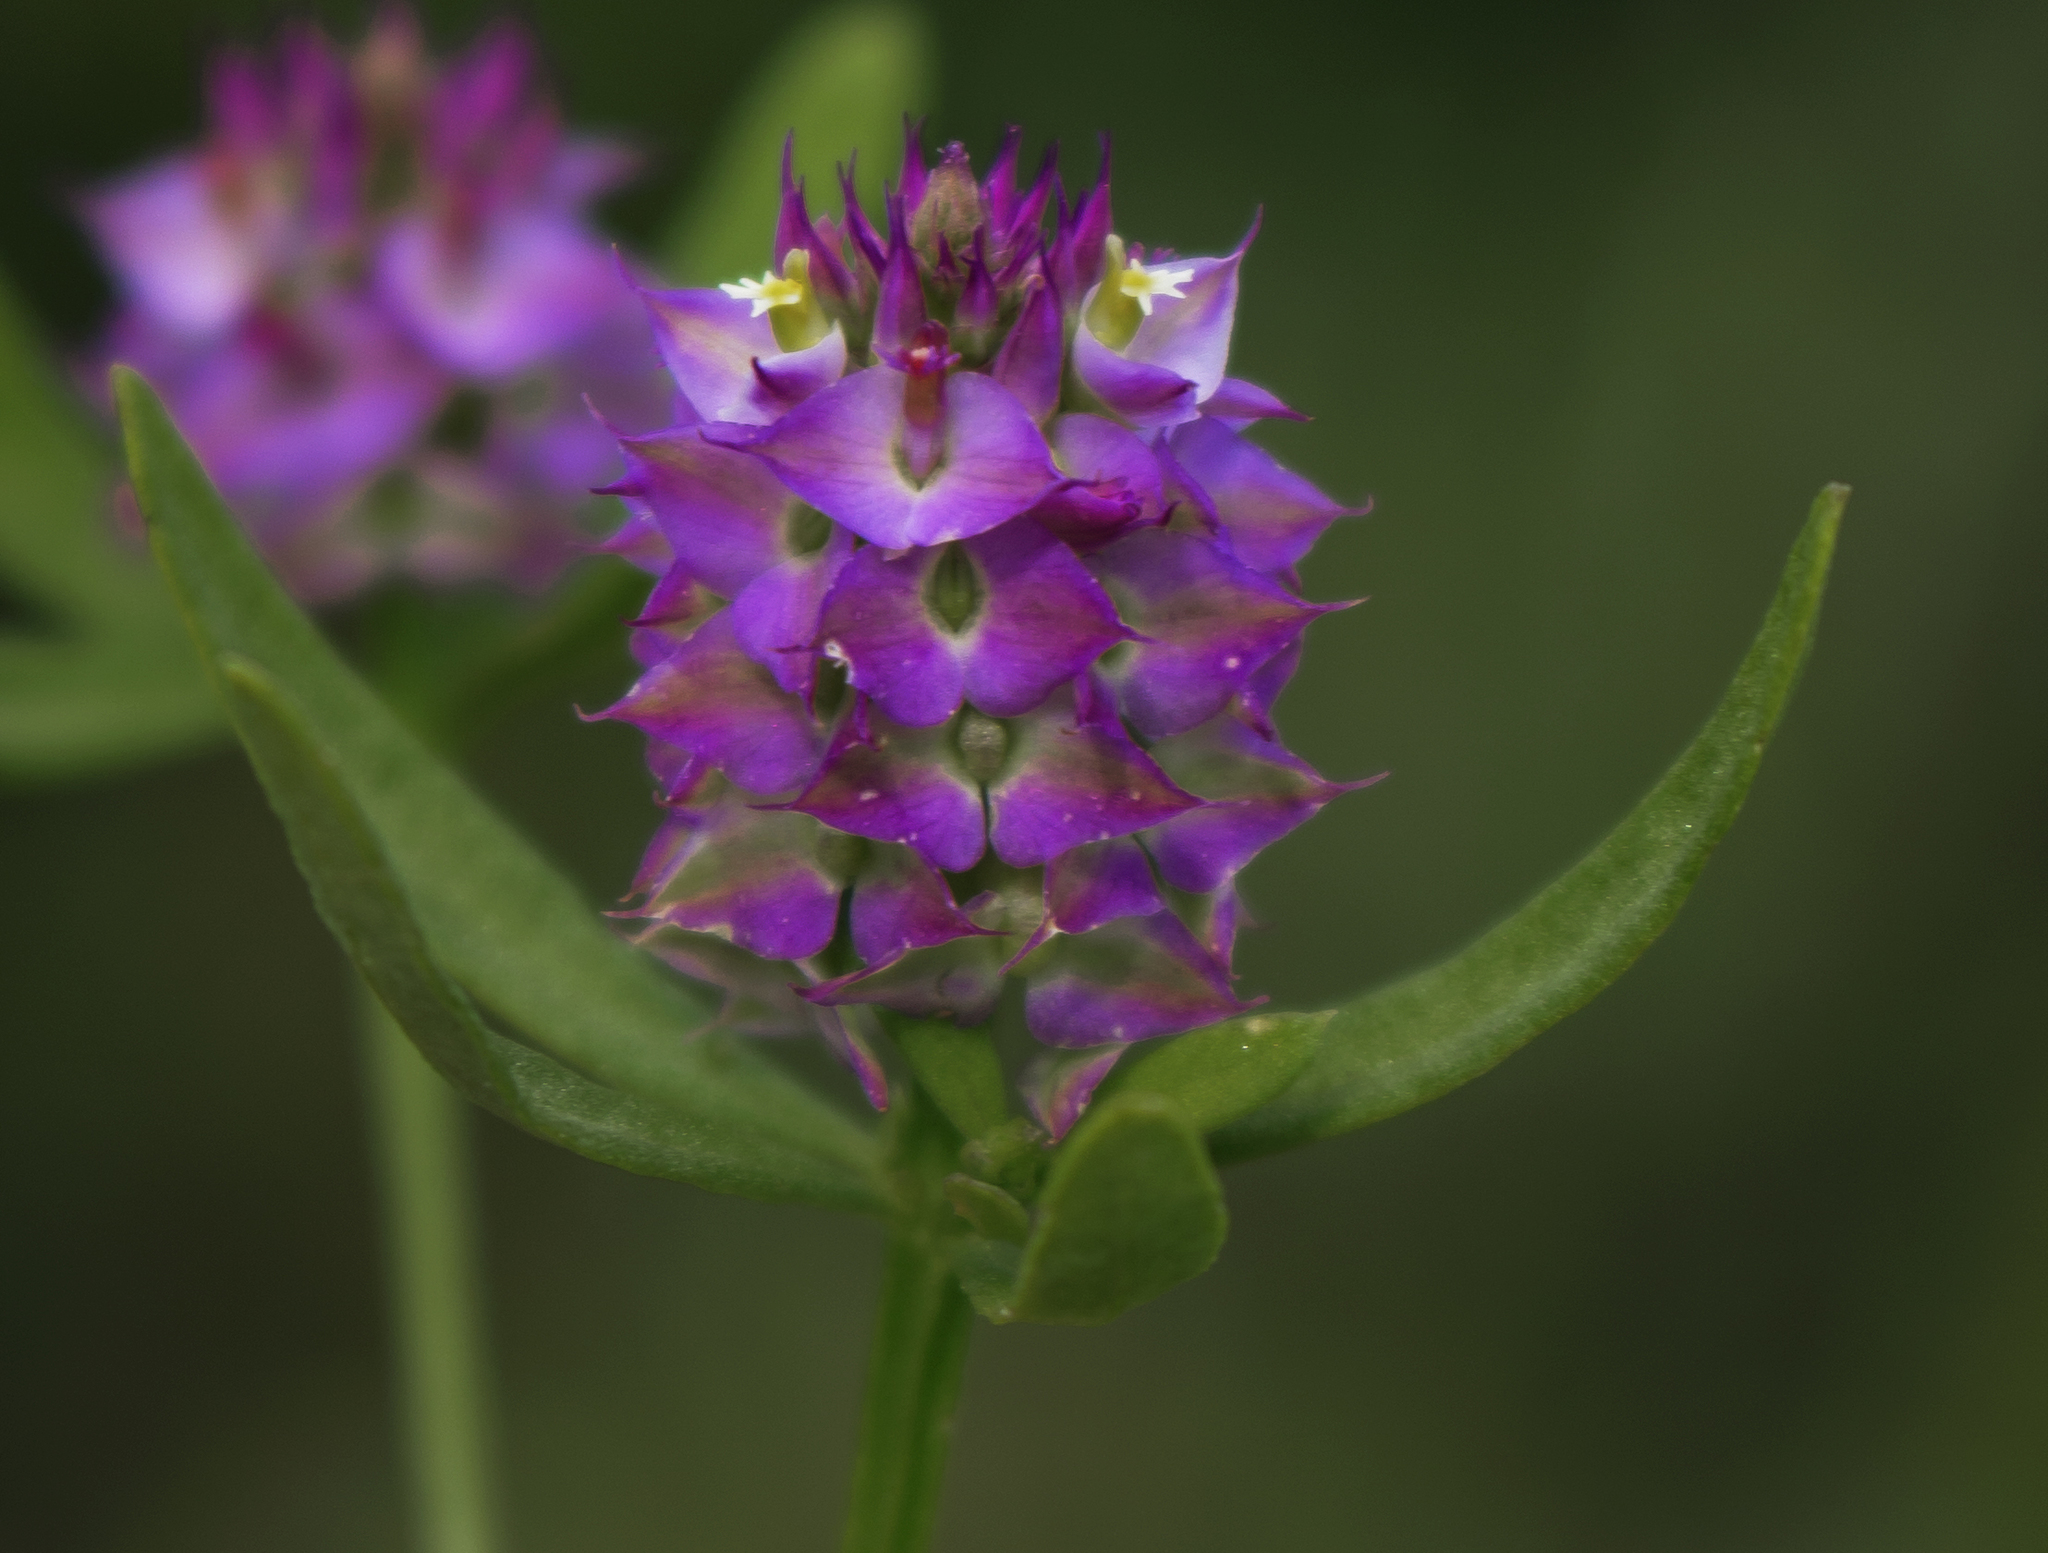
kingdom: Plantae
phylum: Tracheophyta
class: Magnoliopsida
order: Fabales
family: Polygalaceae
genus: Polygala
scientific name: Polygala cruciata
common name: Drumheads
